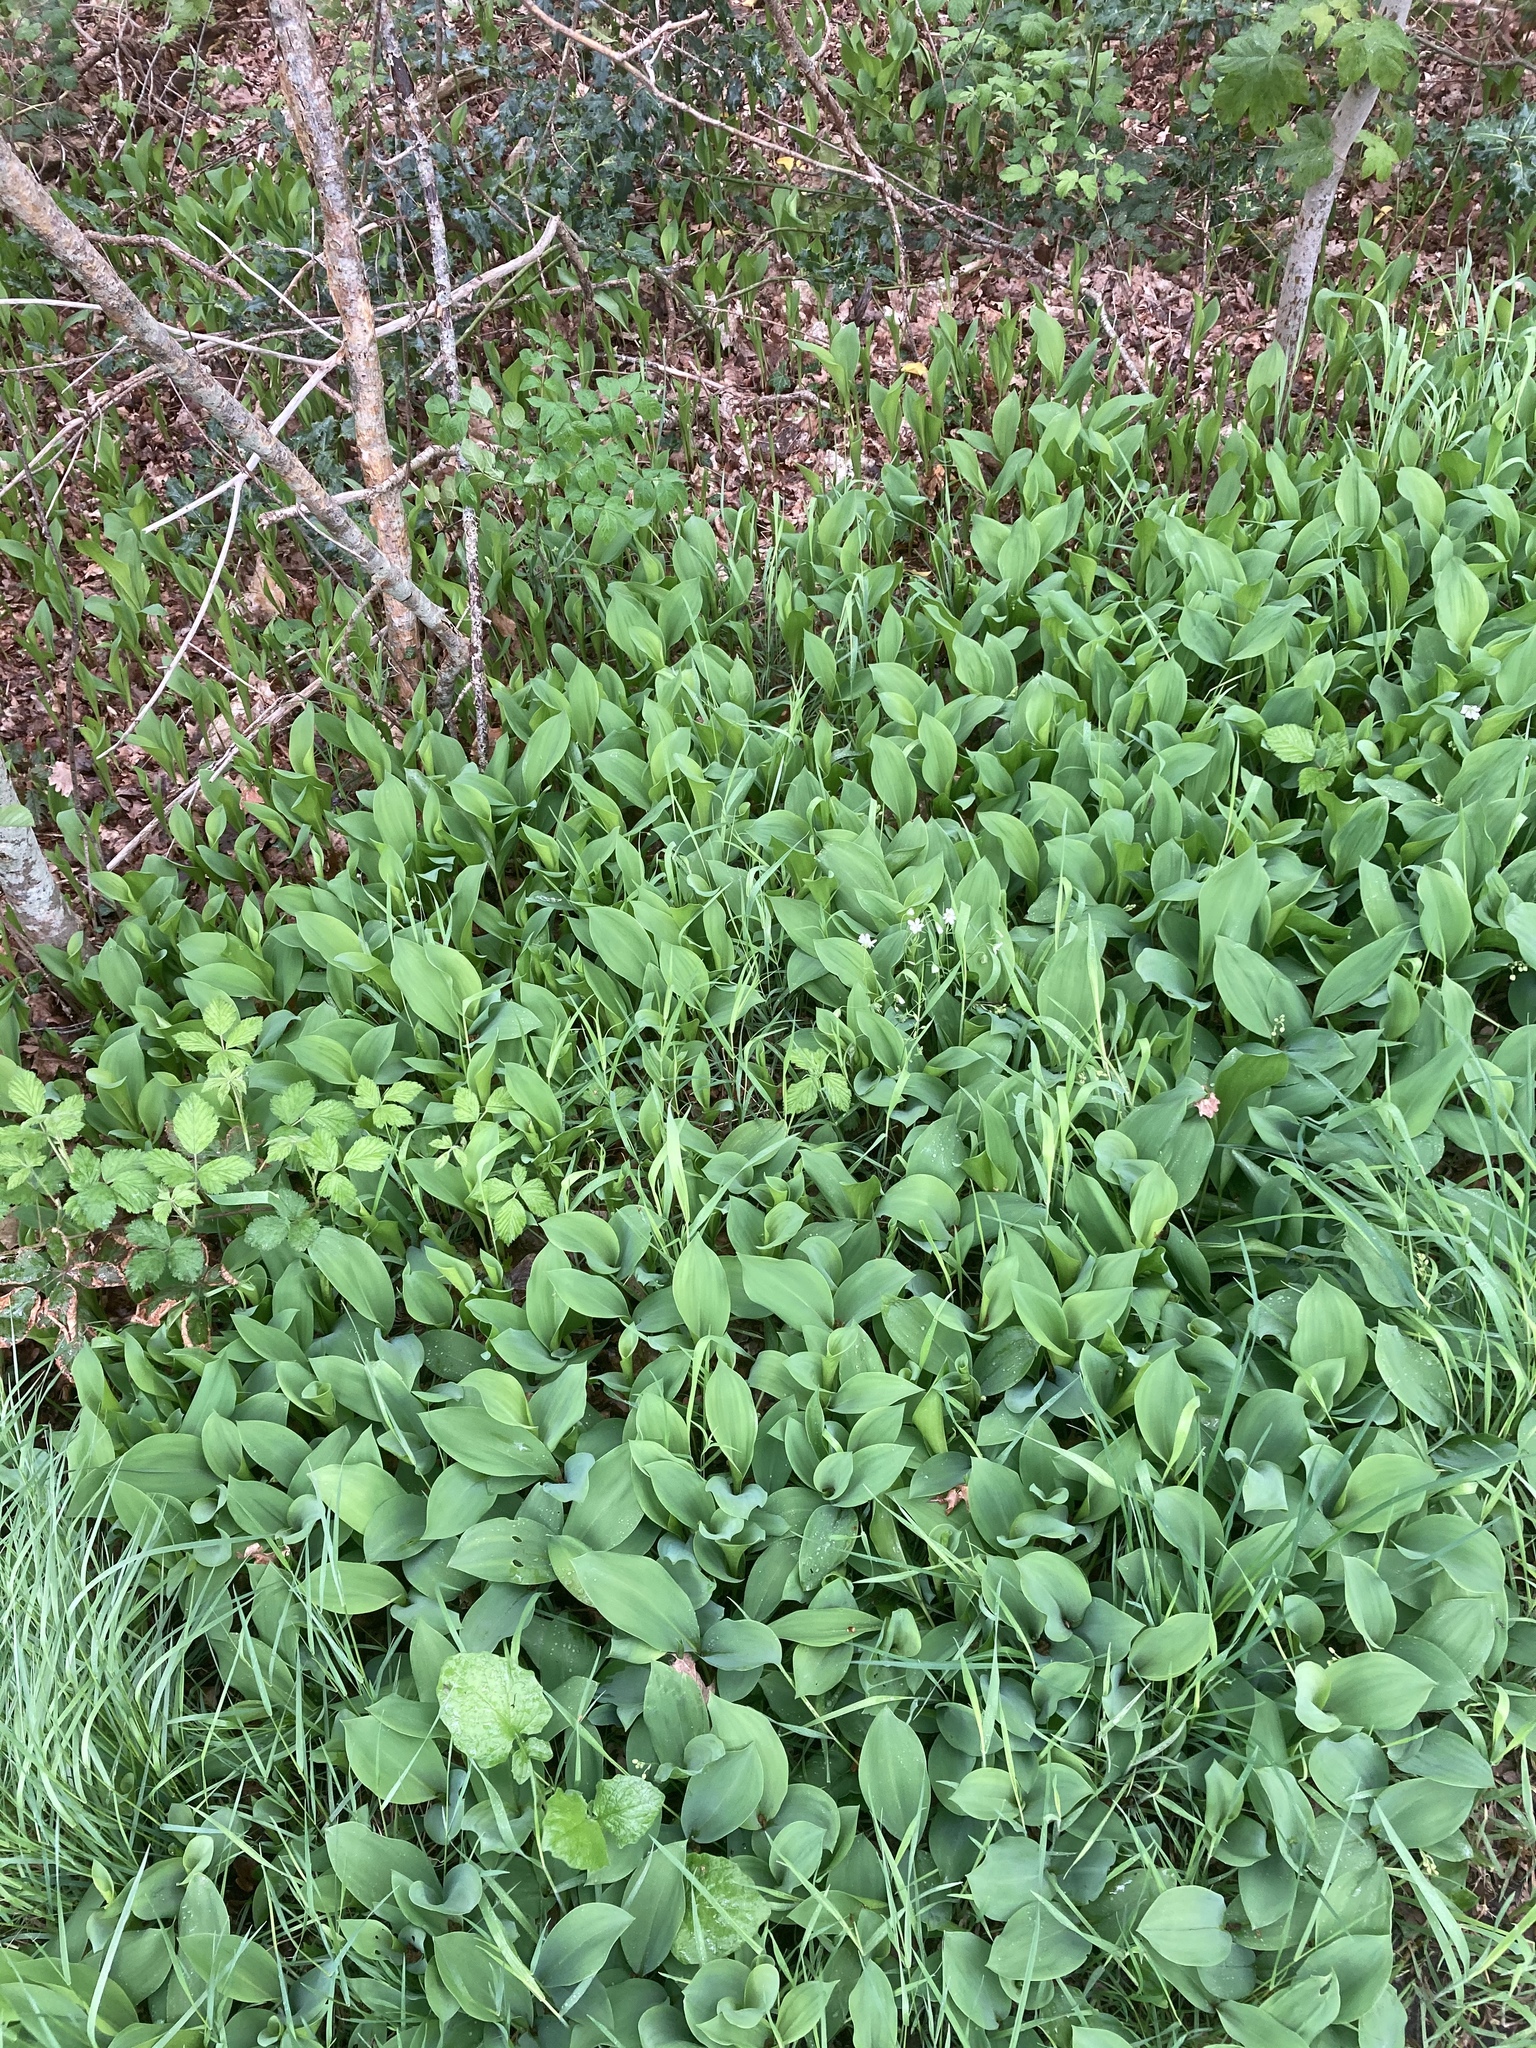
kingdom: Plantae
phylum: Tracheophyta
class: Liliopsida
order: Asparagales
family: Asparagaceae
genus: Convallaria
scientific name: Convallaria majalis
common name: Lily-of-the-valley
